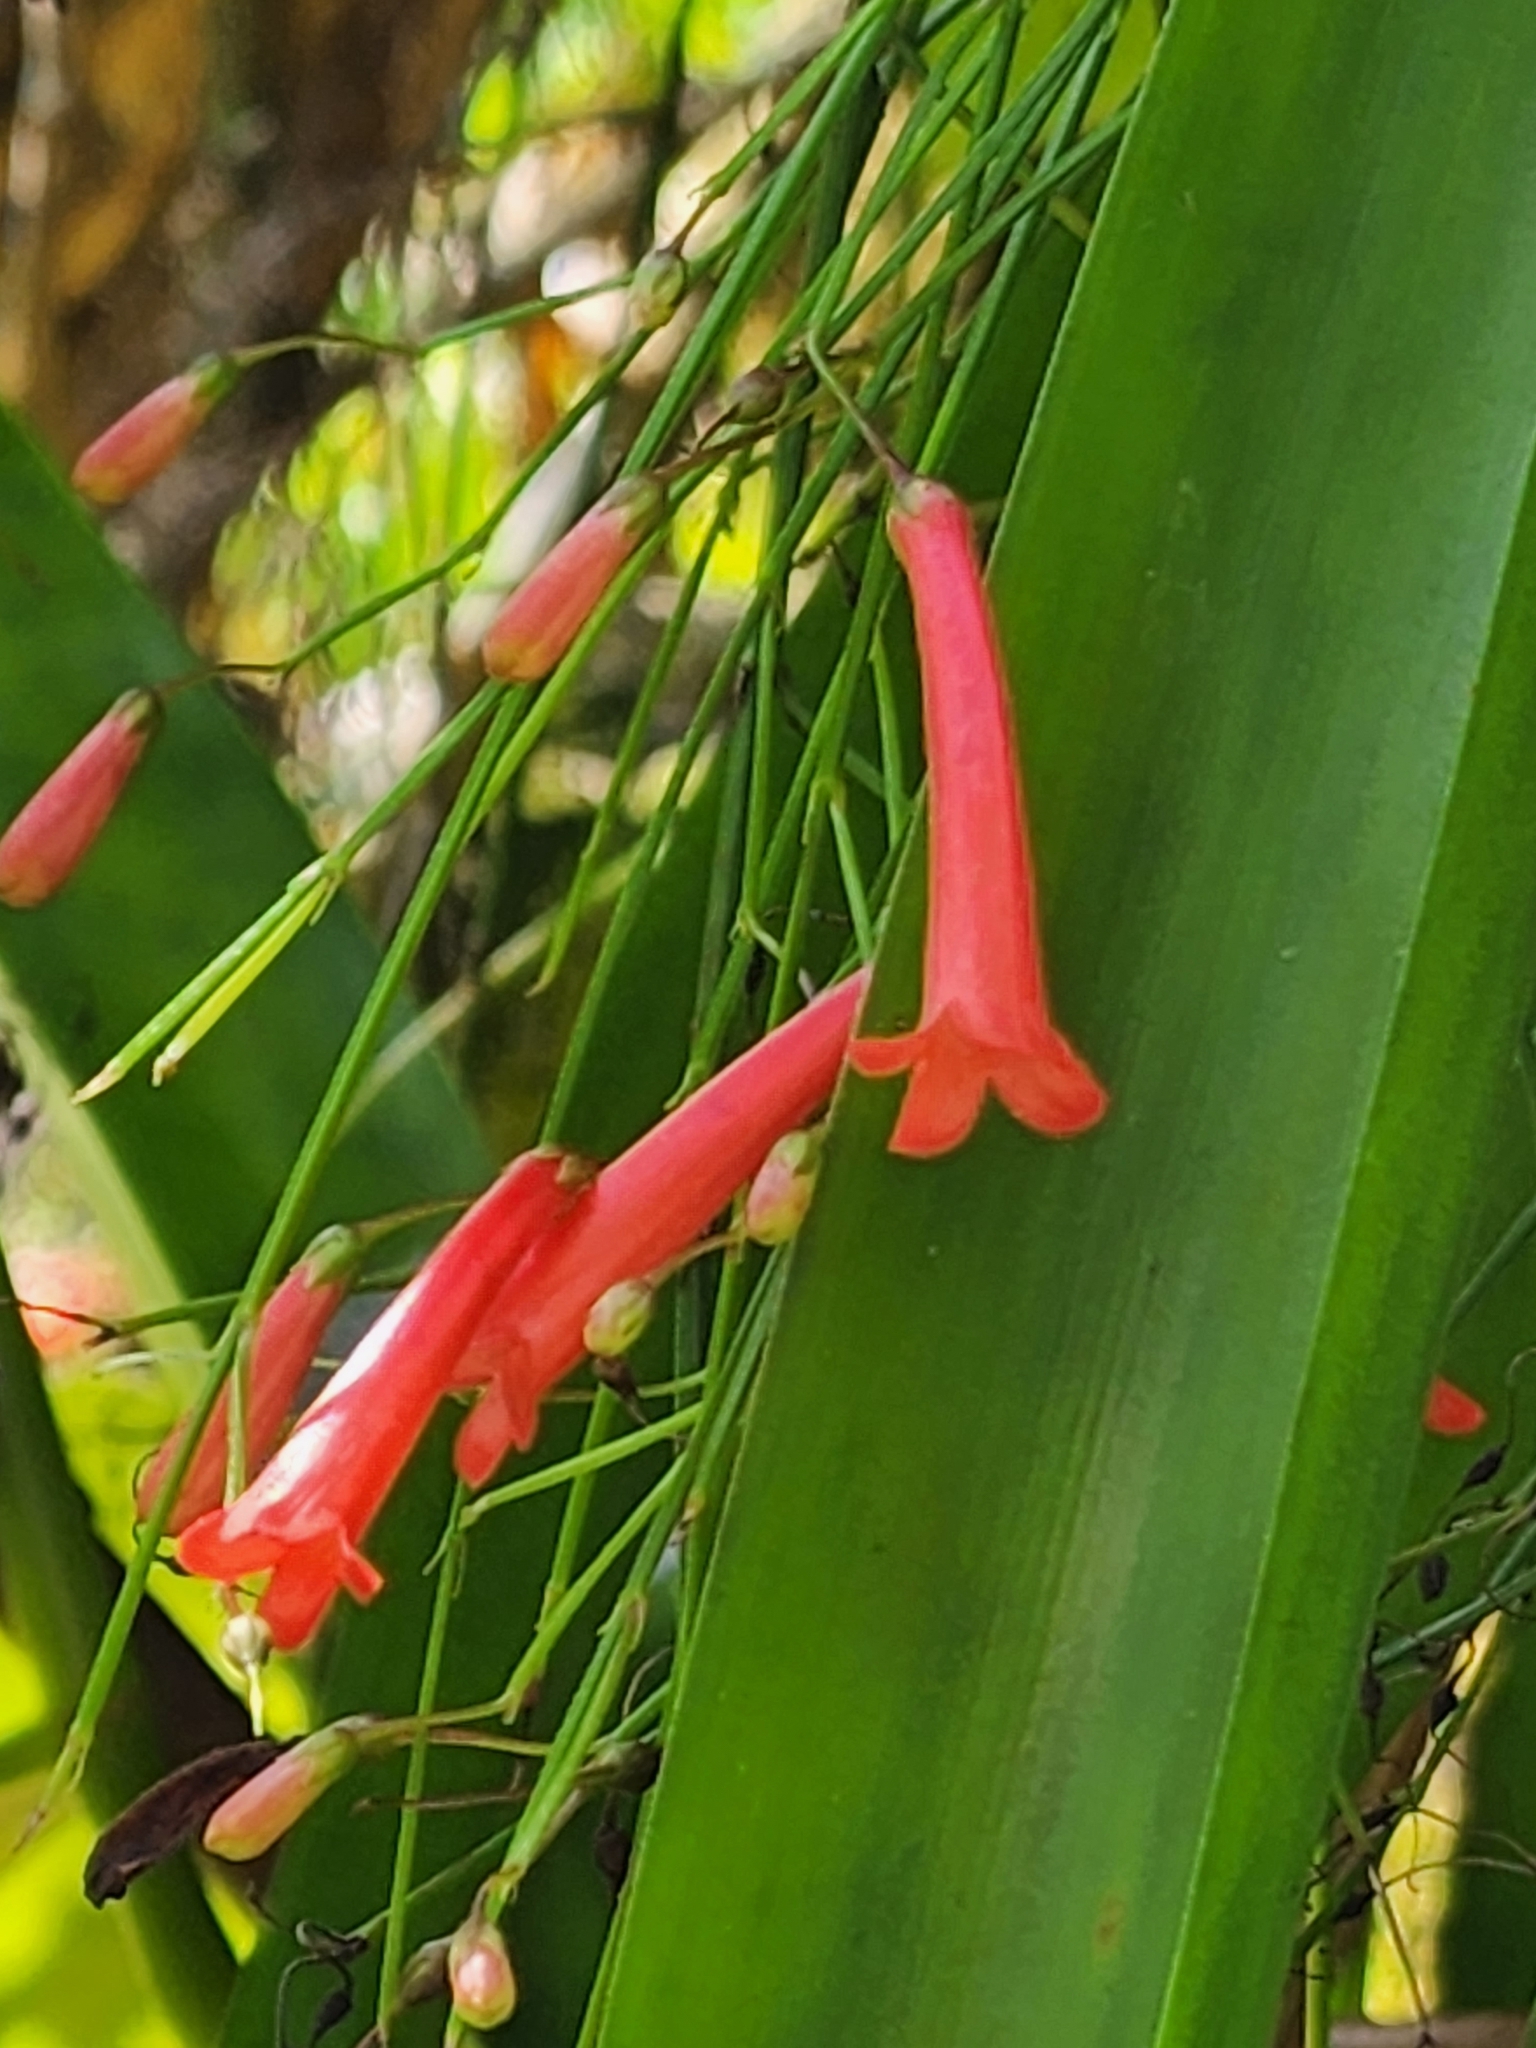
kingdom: Plantae
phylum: Tracheophyta
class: Magnoliopsida
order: Lamiales
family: Plantaginaceae
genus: Russelia
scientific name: Russelia equisetiformis
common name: Fountainbush
